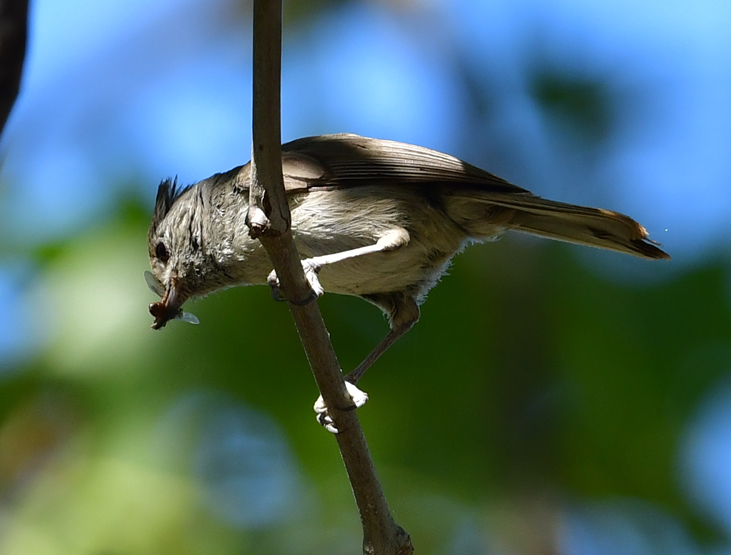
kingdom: Animalia
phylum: Chordata
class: Aves
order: Passeriformes
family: Paridae
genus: Baeolophus
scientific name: Baeolophus inornatus
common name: Oak titmouse
